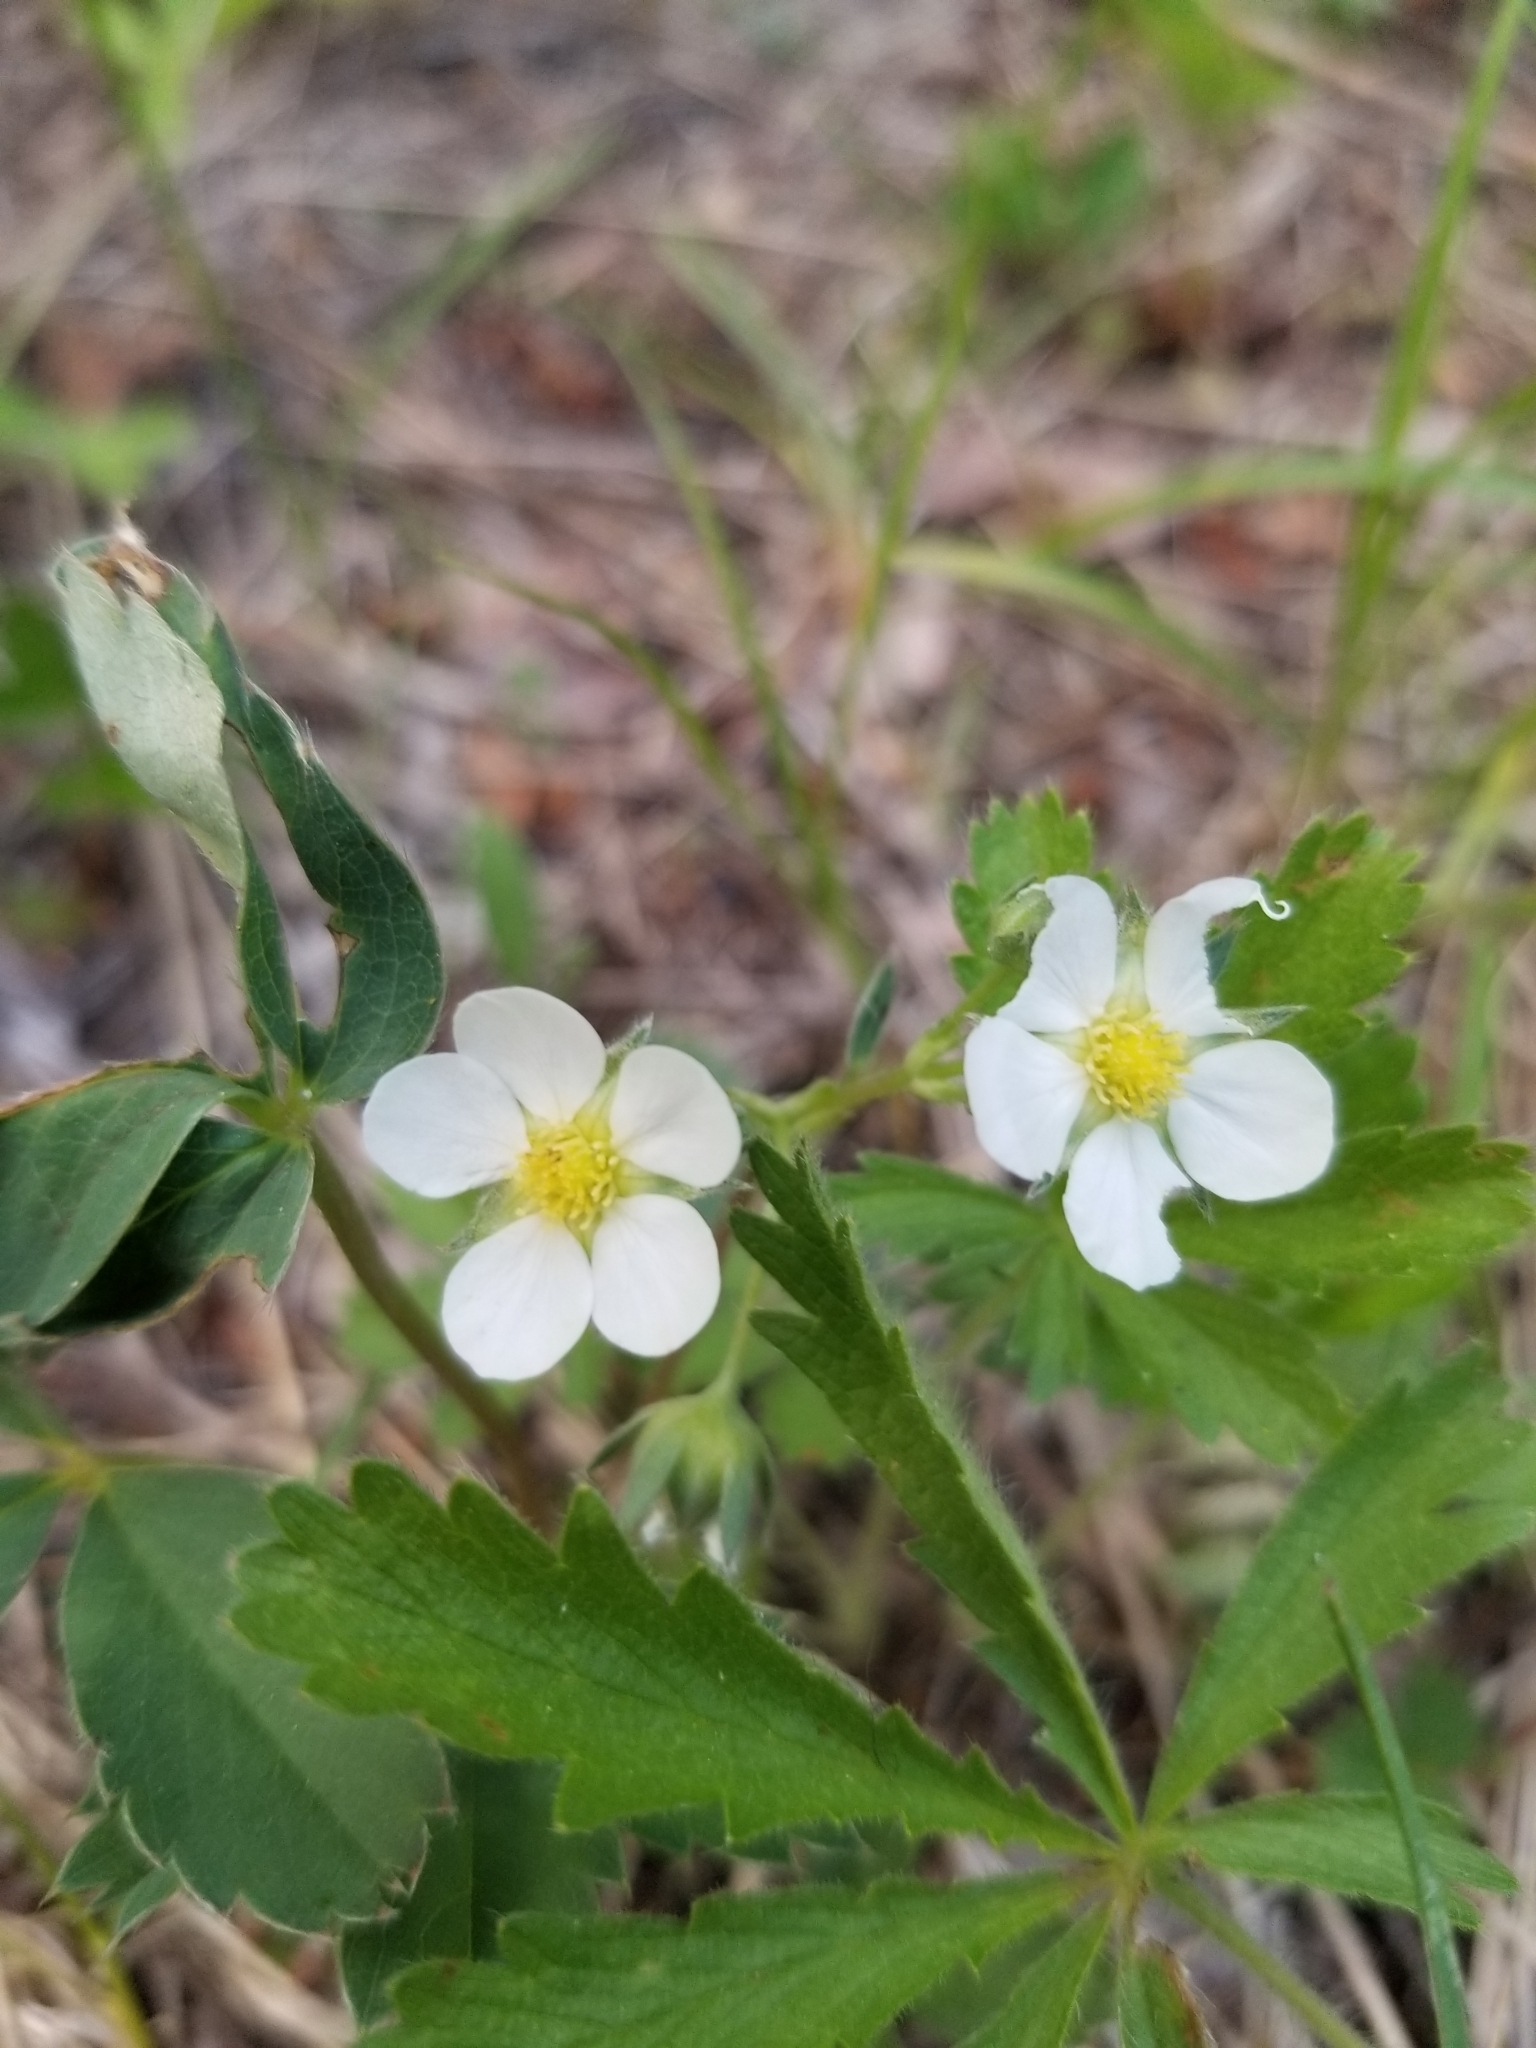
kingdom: Plantae
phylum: Tracheophyta
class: Magnoliopsida
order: Rosales
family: Rosaceae
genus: Fragaria
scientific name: Fragaria virginiana
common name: Thickleaved wild strawberry
